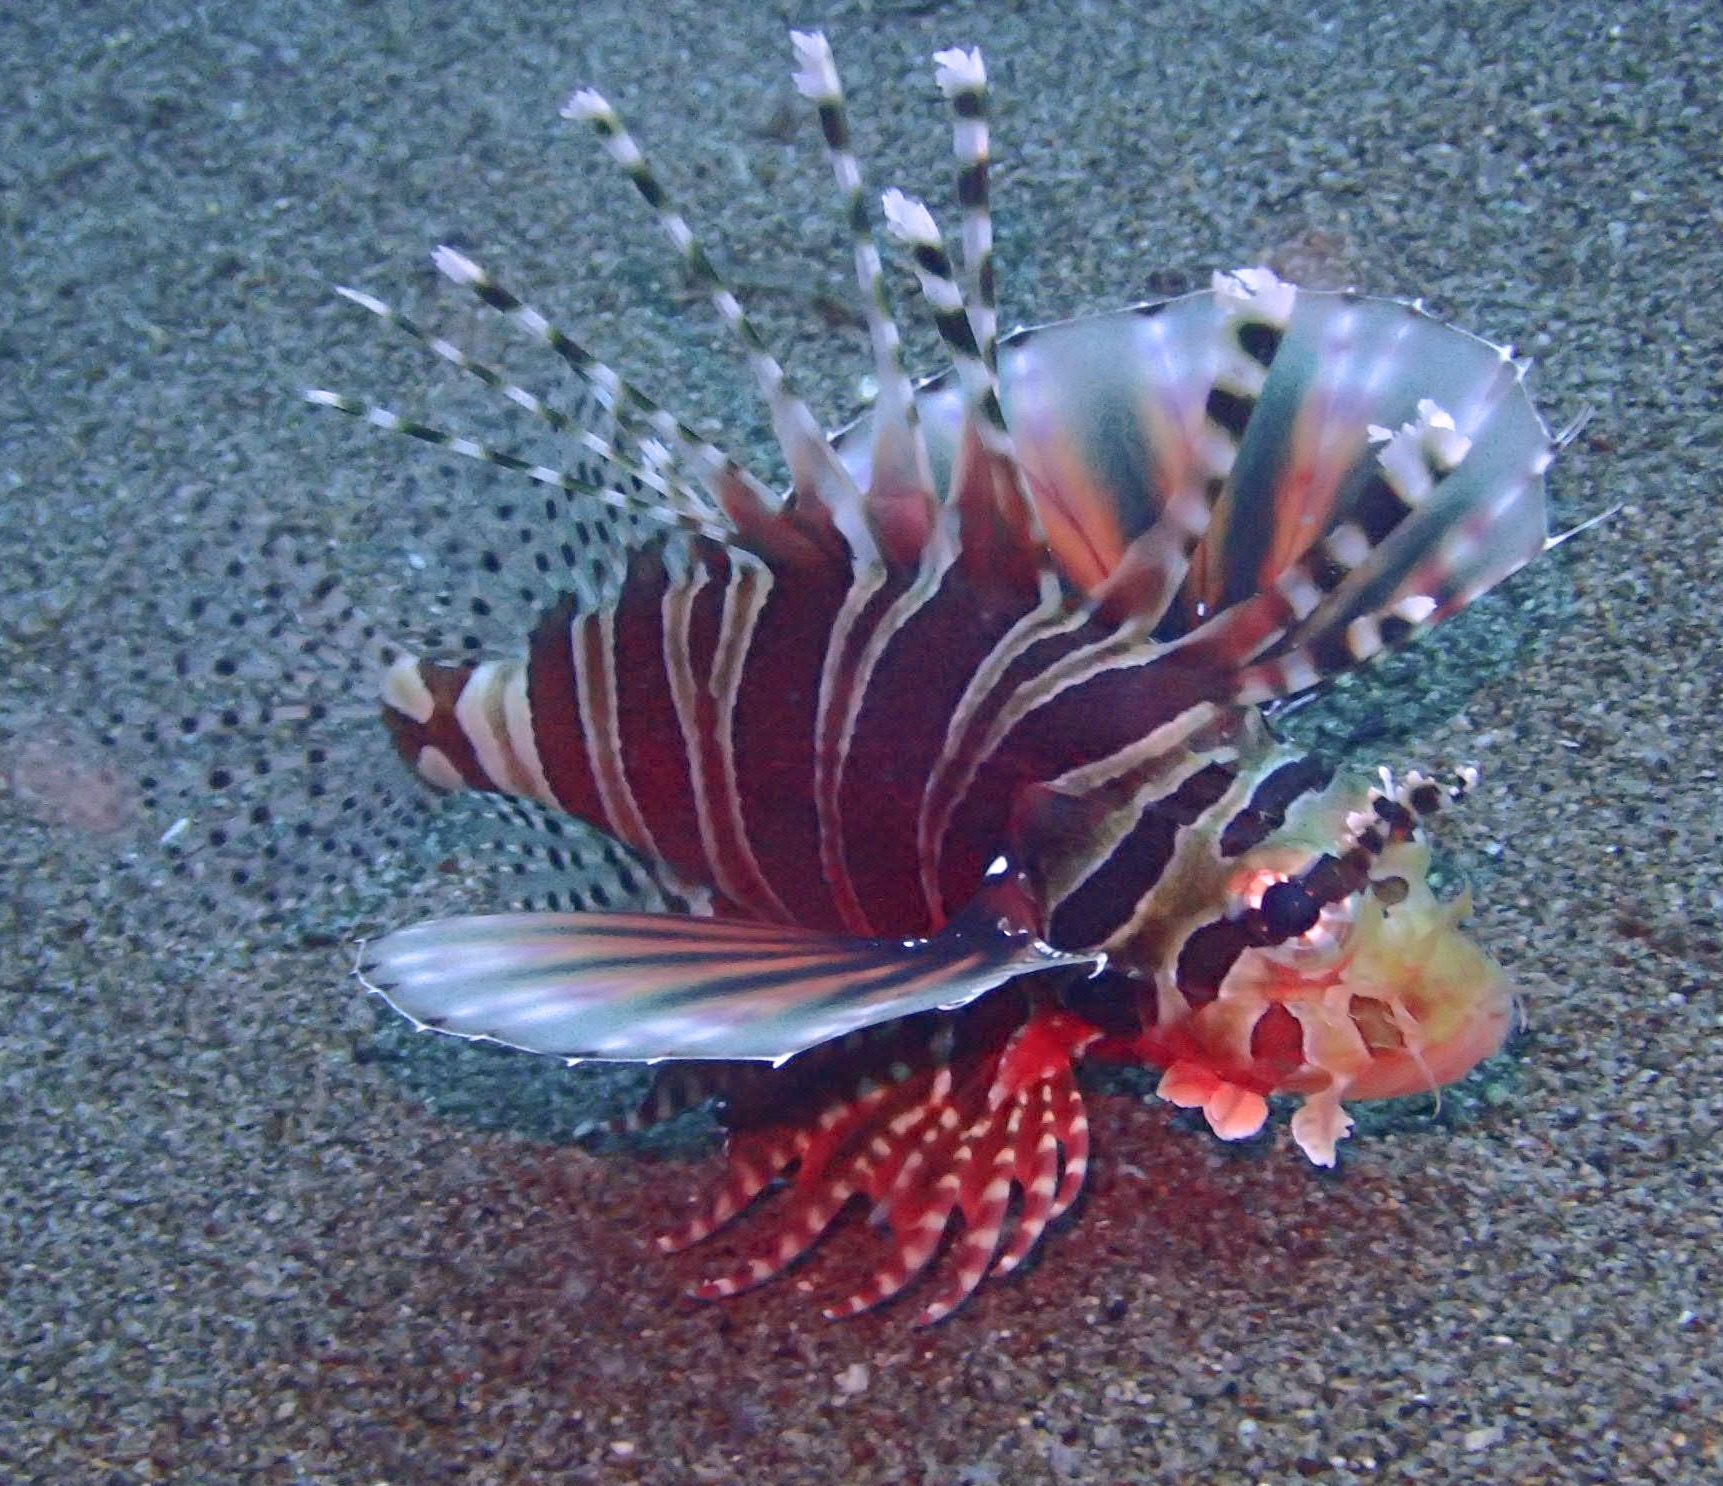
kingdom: Animalia
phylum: Chordata
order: Scorpaeniformes
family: Scorpaenidae
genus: Dendrochirus
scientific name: Dendrochirus zebra
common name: Zebra lionfish
